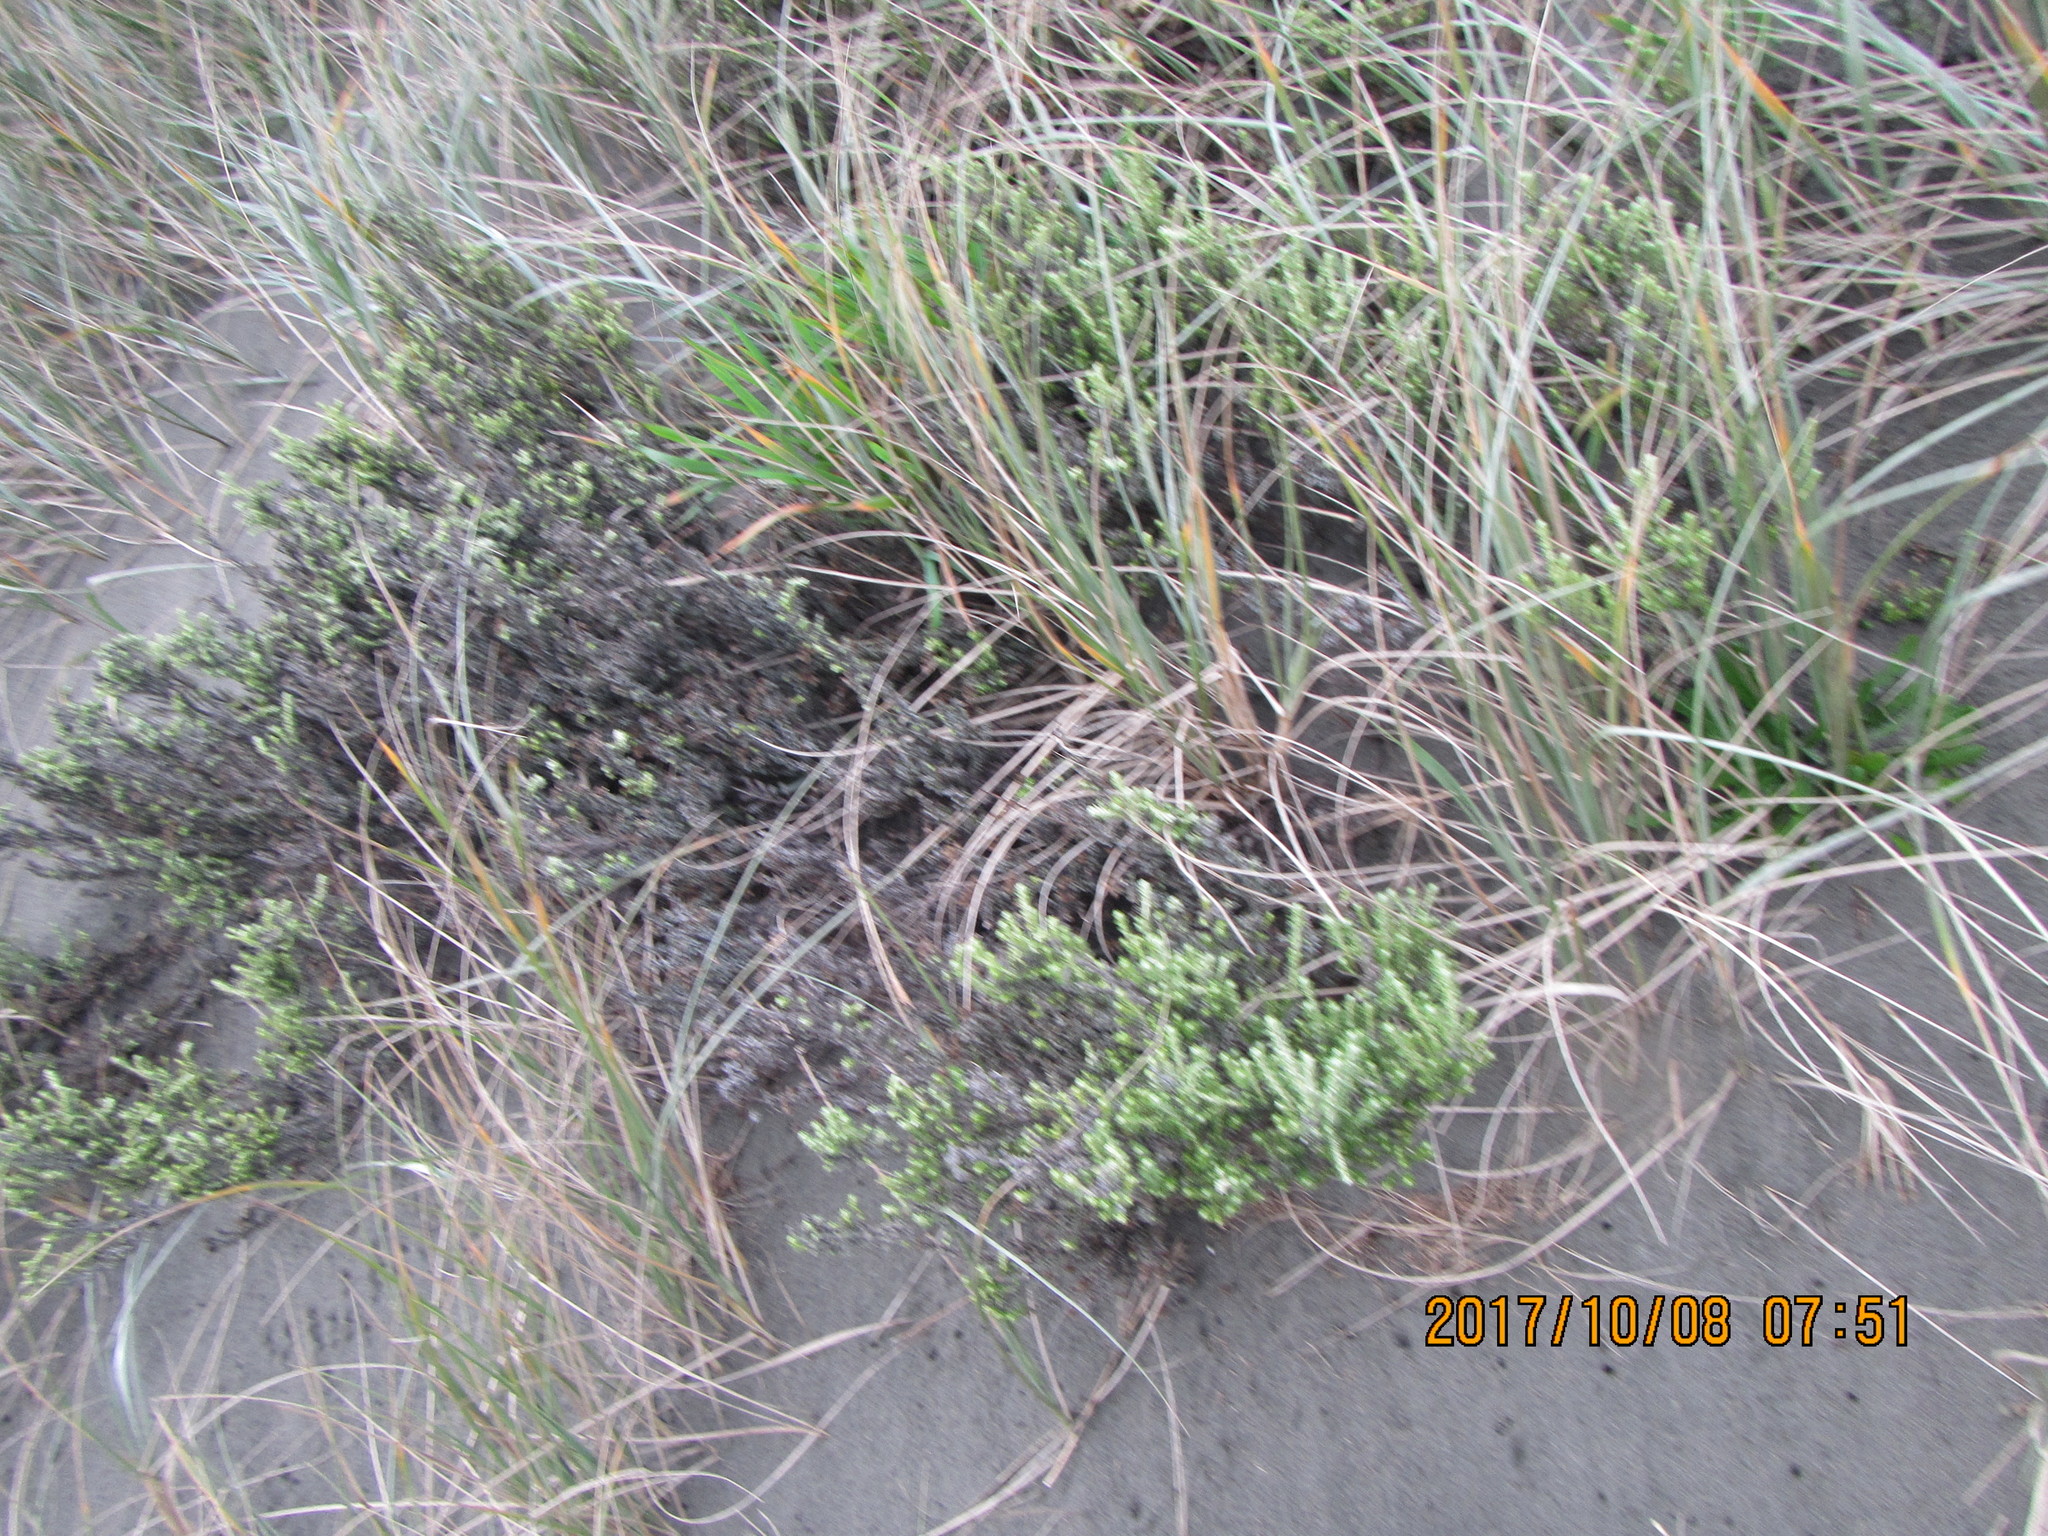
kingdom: Plantae
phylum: Tracheophyta
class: Magnoliopsida
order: Asterales
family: Asteraceae
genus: Ozothamnus
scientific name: Ozothamnus leptophyllus
